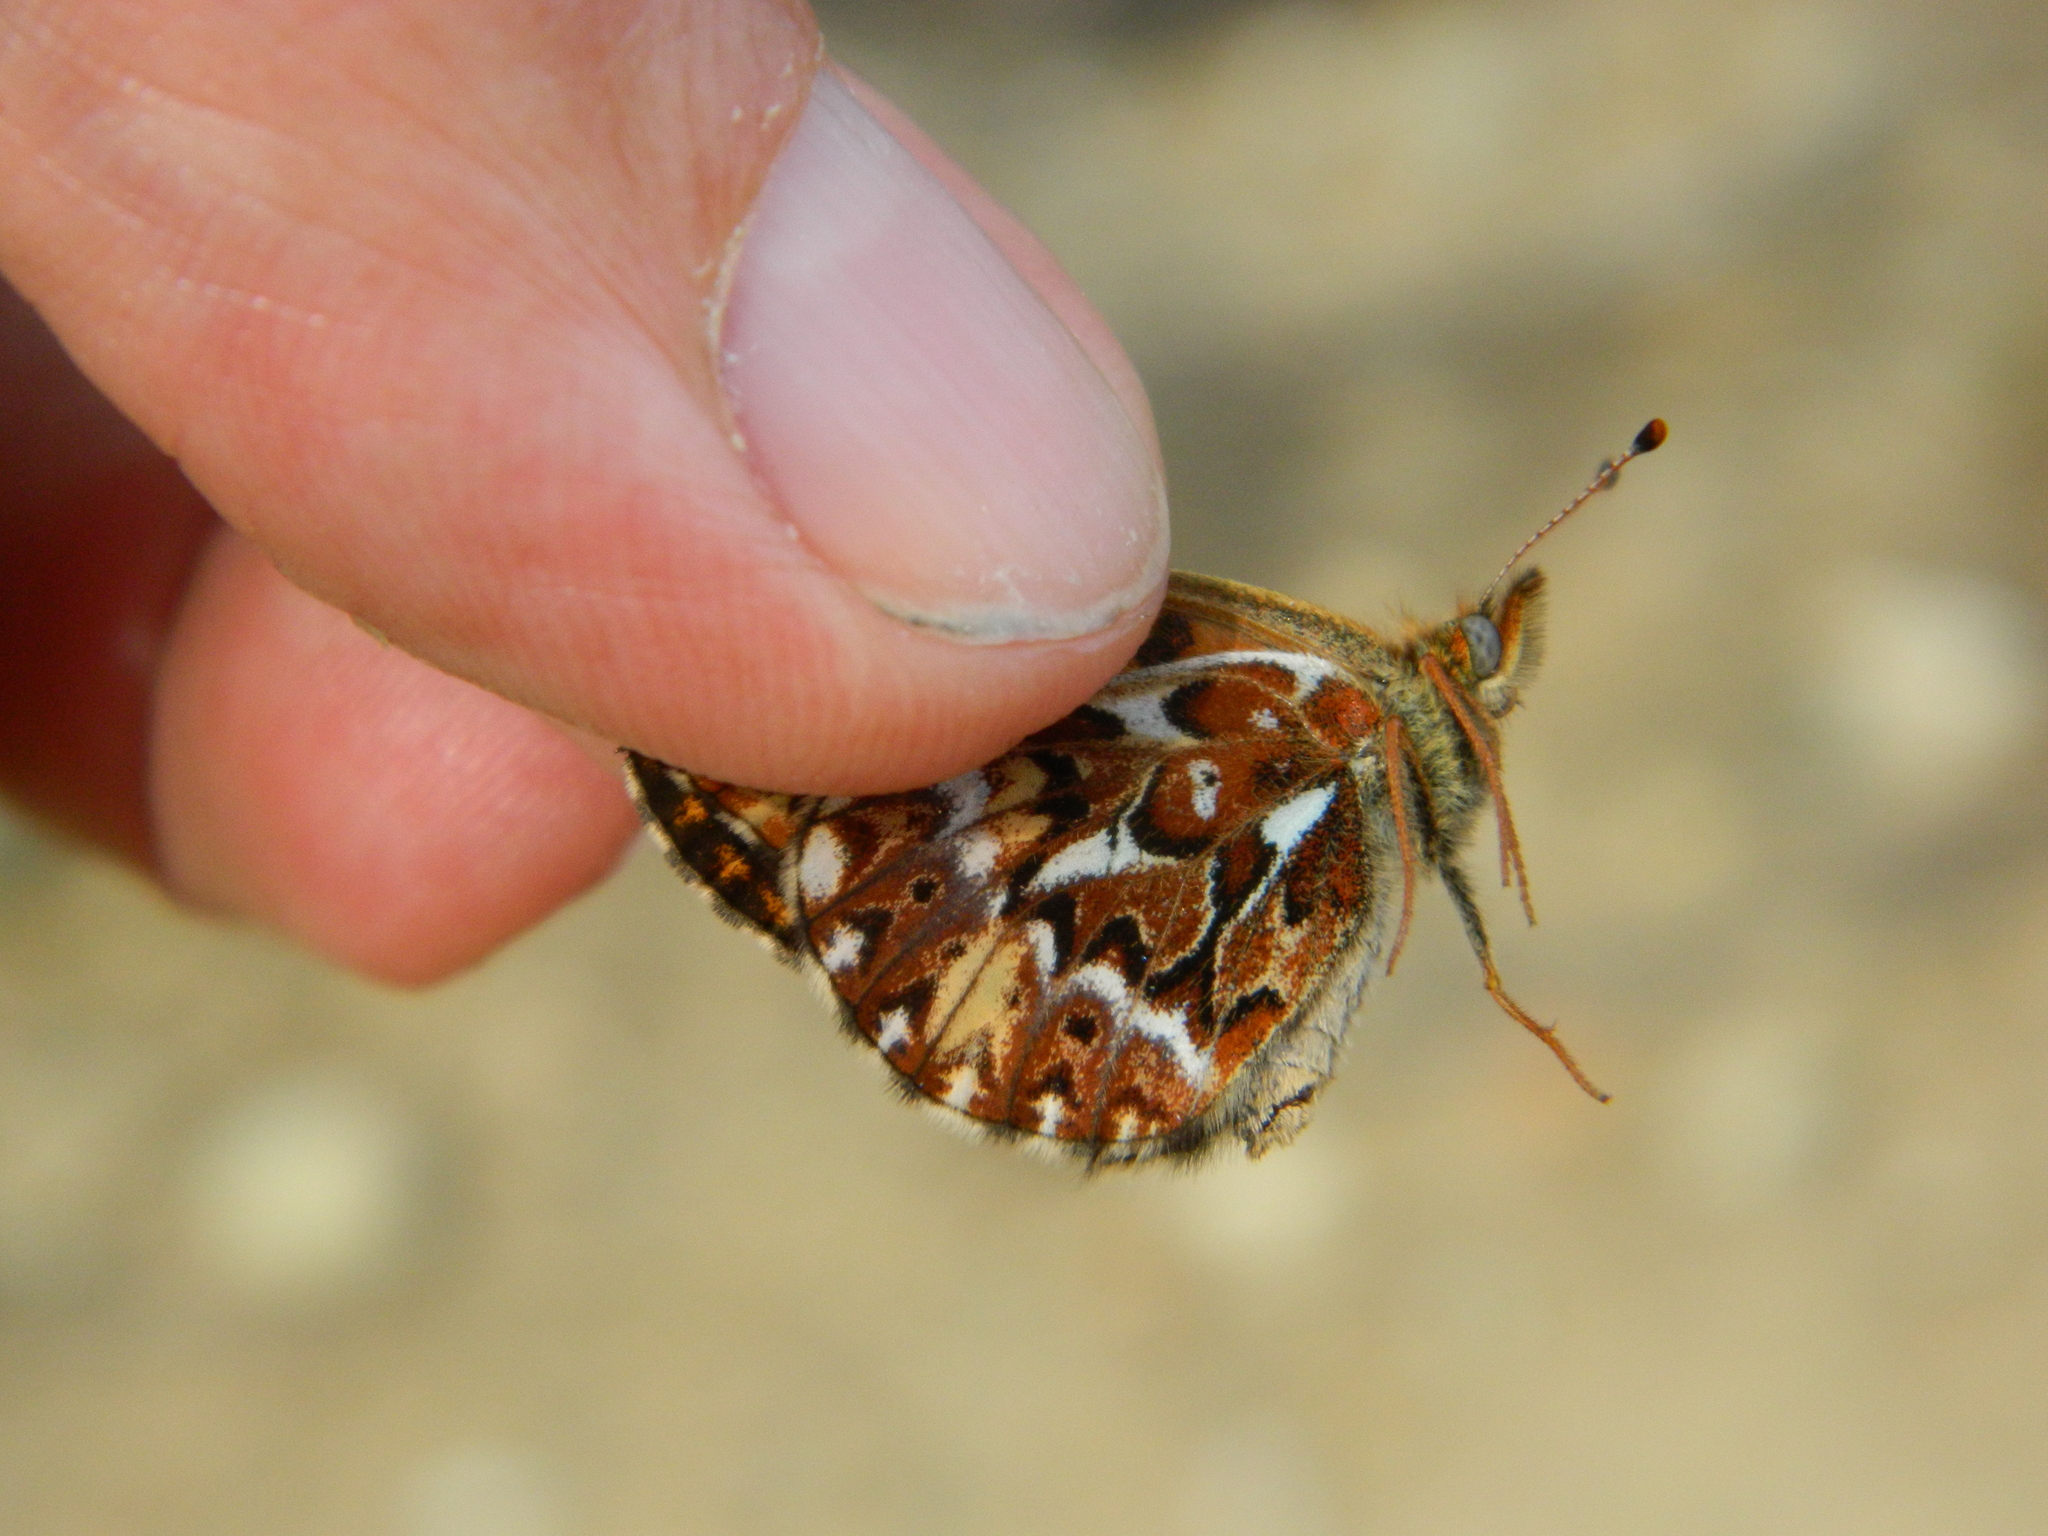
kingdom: Animalia
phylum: Arthropoda
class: Insecta
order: Lepidoptera
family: Nymphalidae
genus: Boloria
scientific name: Boloria freija
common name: Freija fritillary
